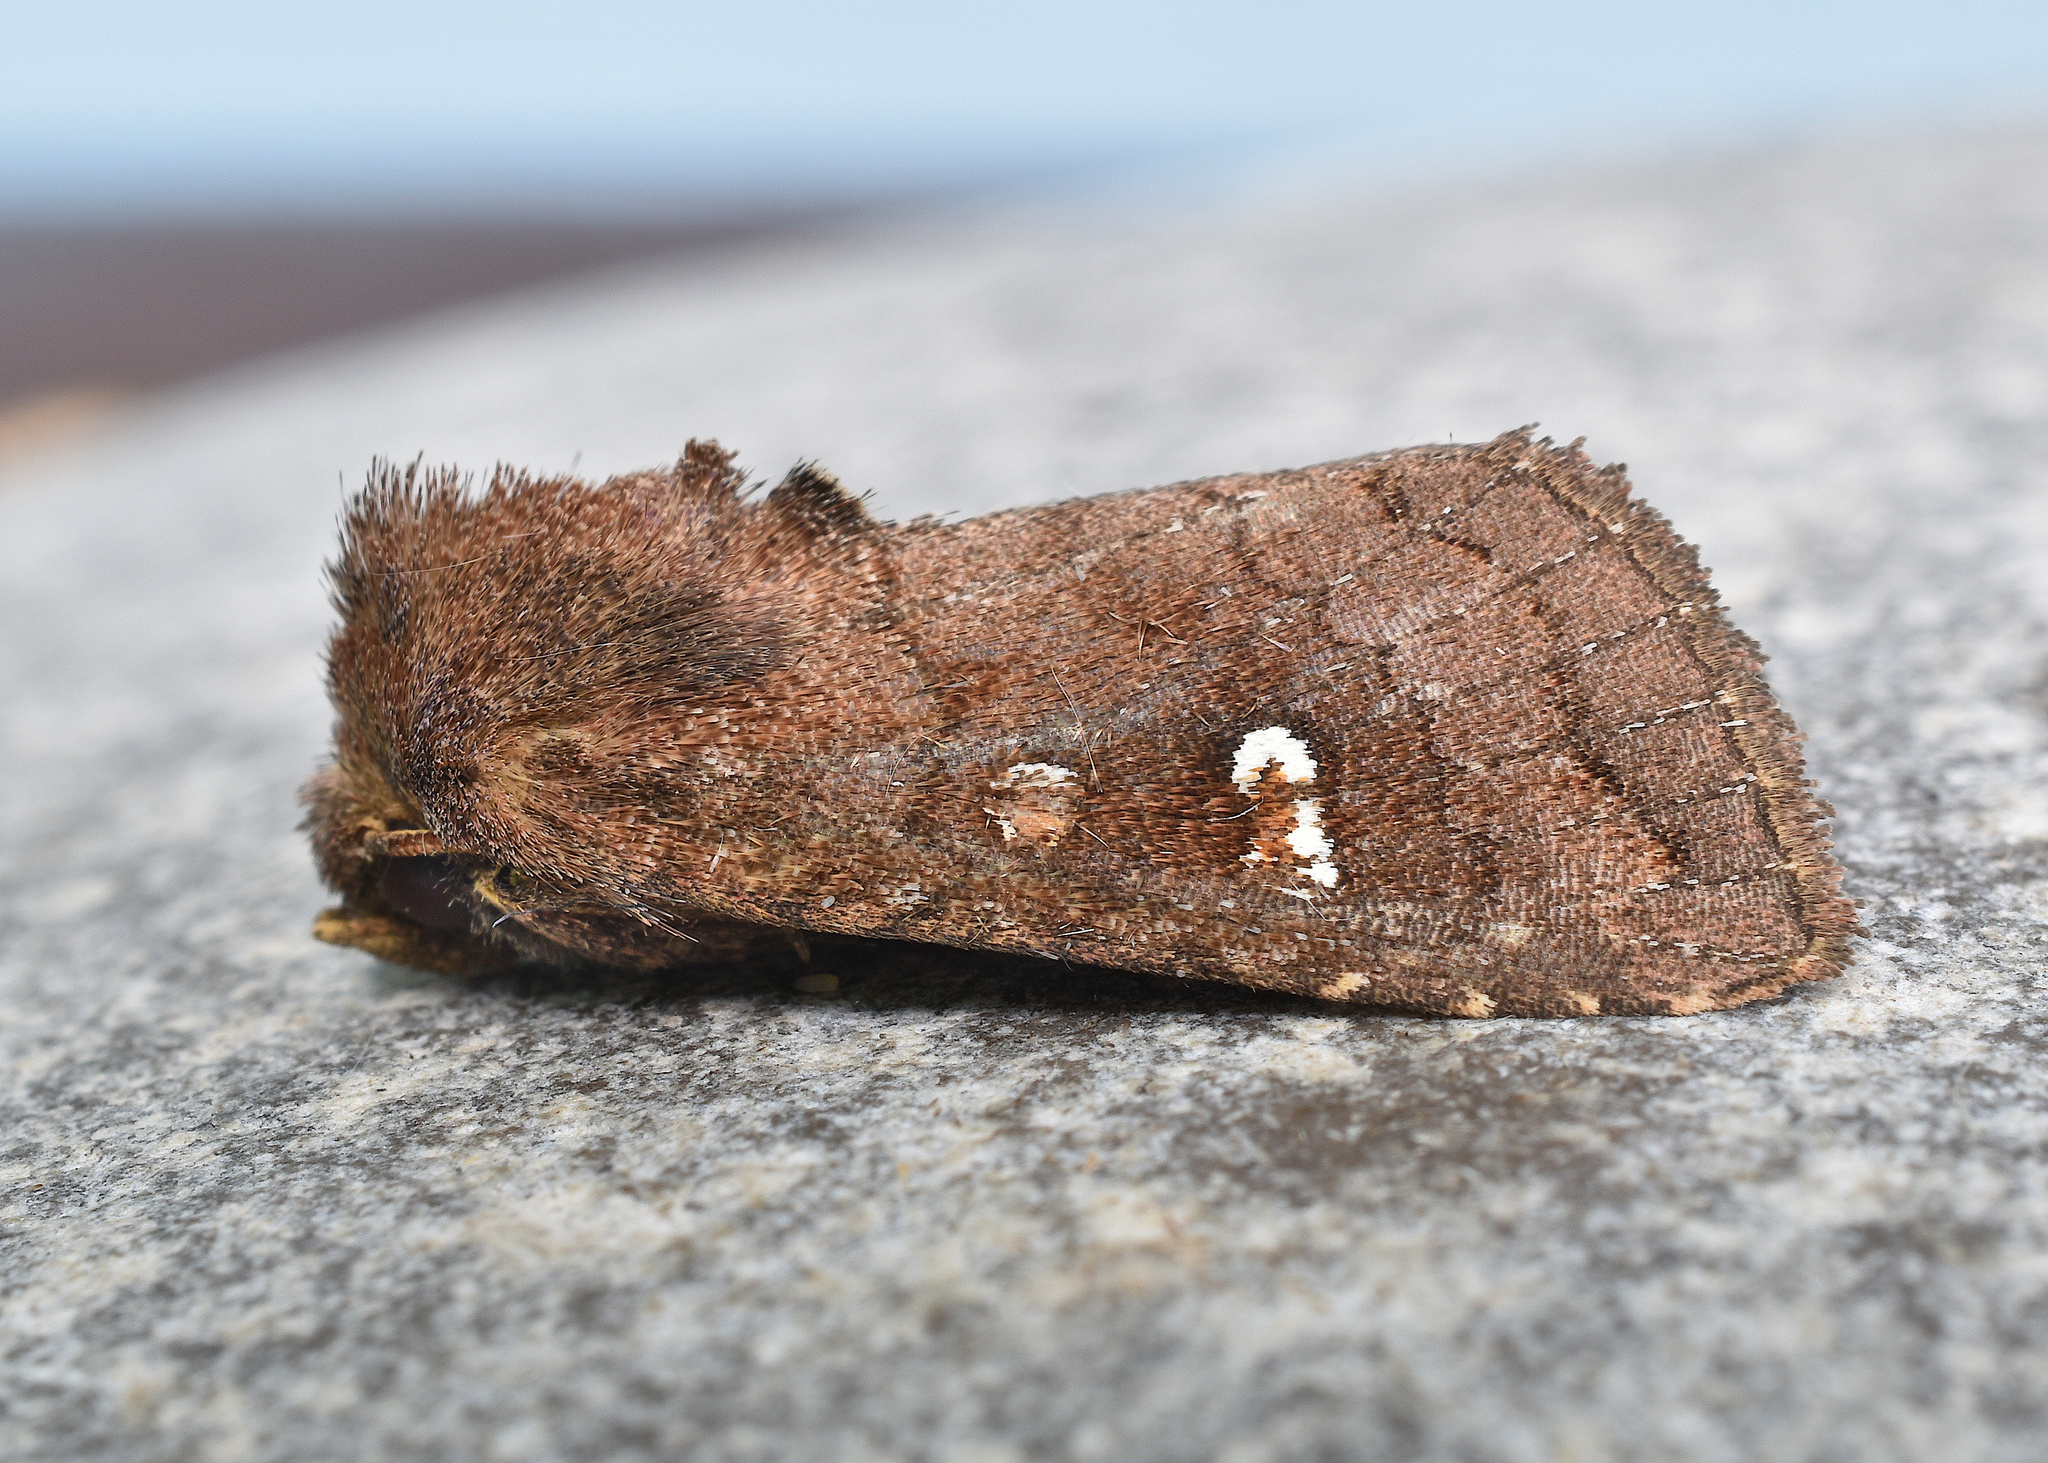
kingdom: Animalia
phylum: Arthropoda
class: Insecta
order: Lepidoptera
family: Noctuidae
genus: Tricholita
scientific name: Tricholita signata
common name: Signate quaker
